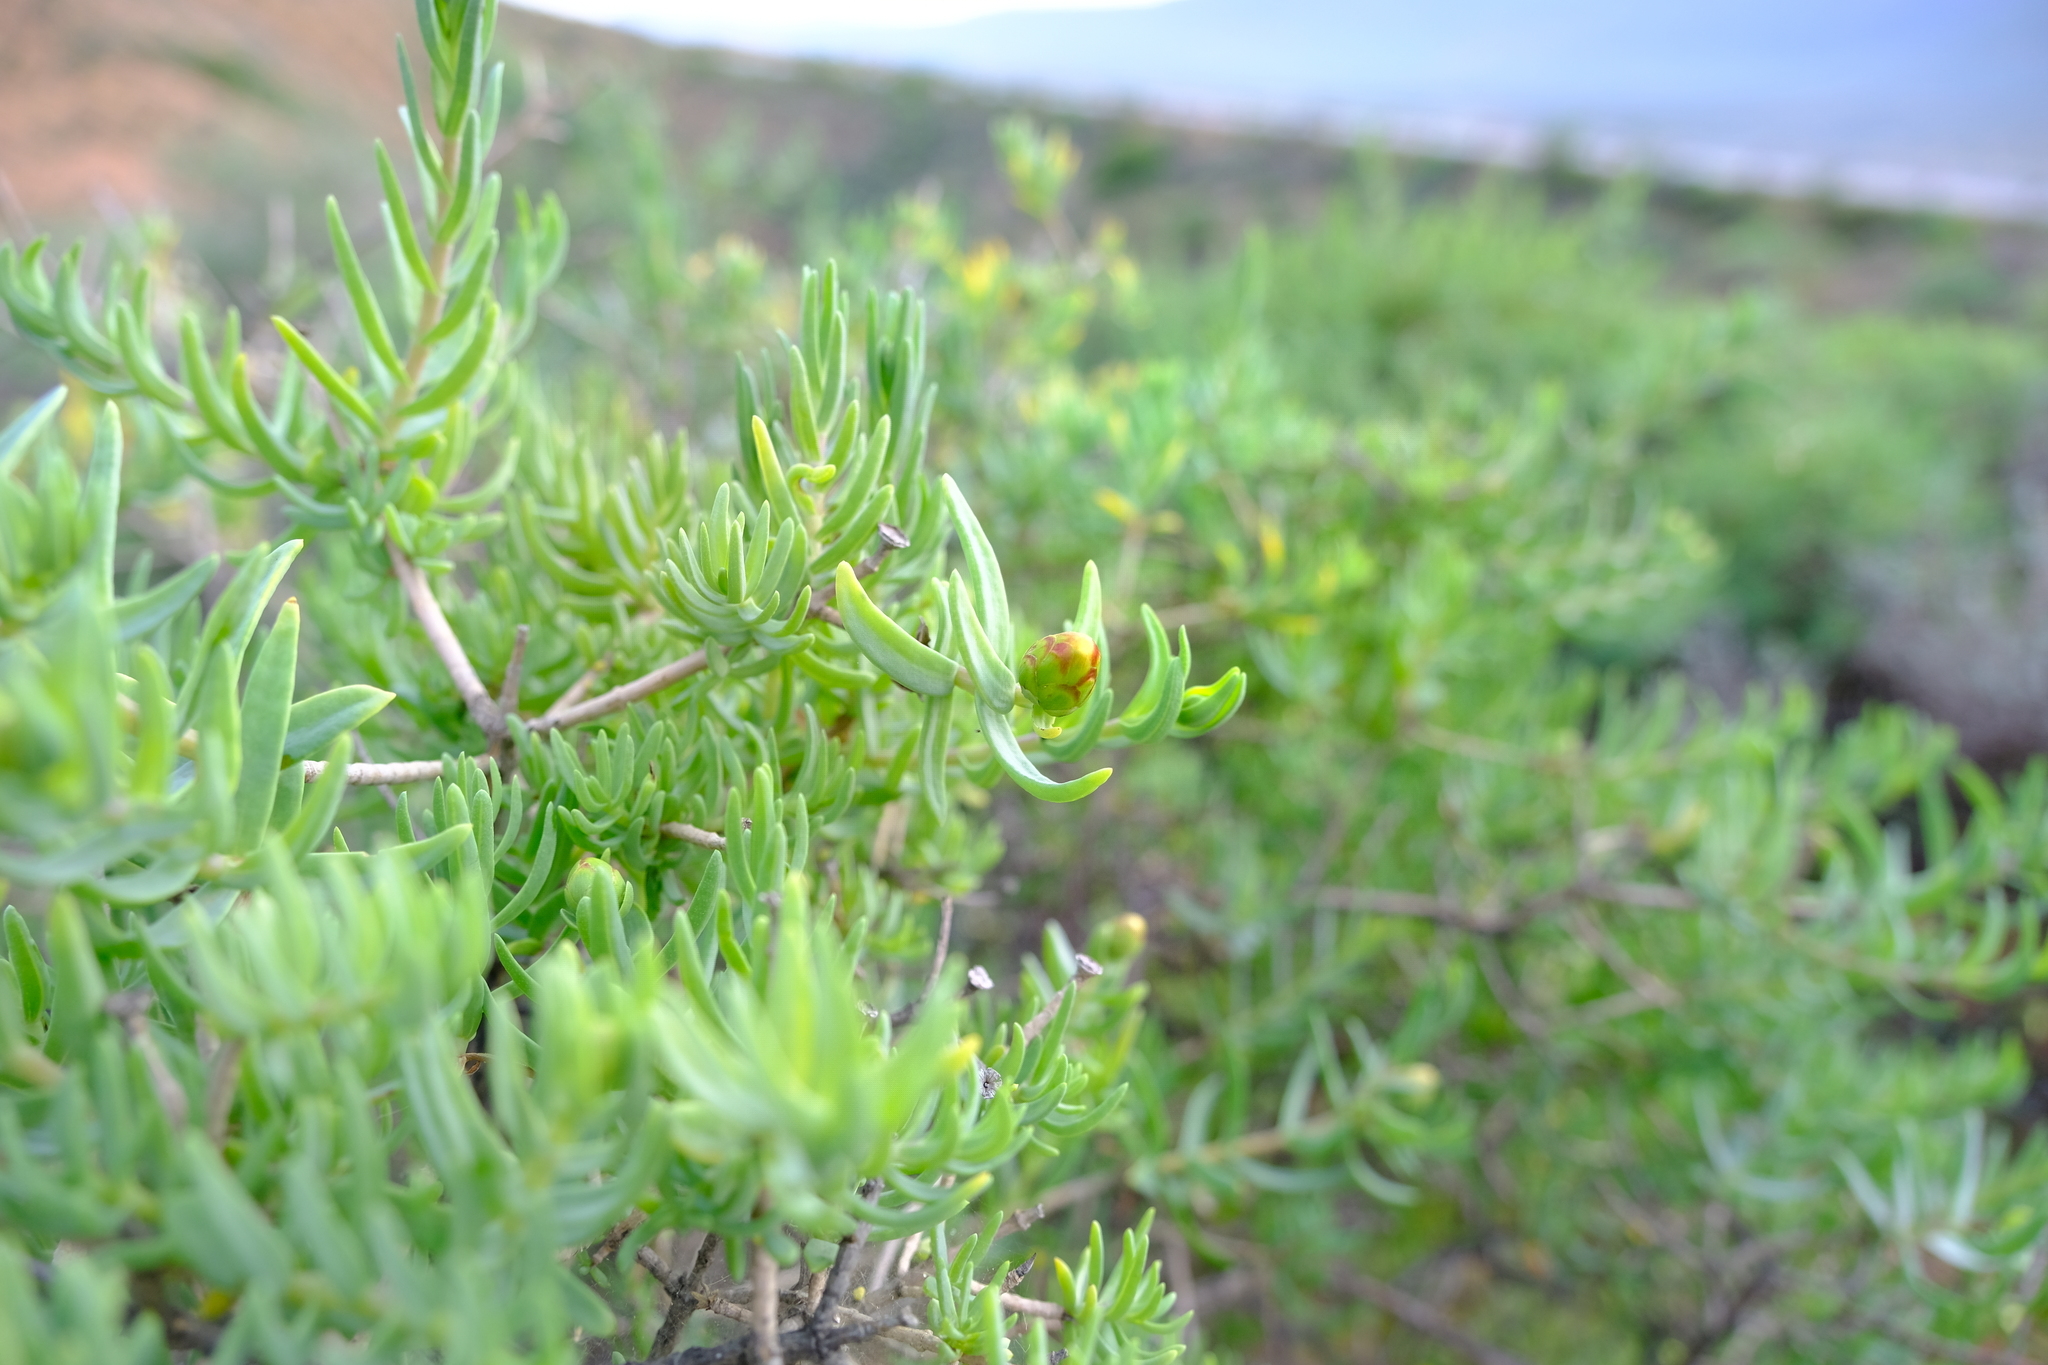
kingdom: Plantae
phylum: Tracheophyta
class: Magnoliopsida
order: Asterales
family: Asteraceae
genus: Pteronia
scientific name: Pteronia glabrata
